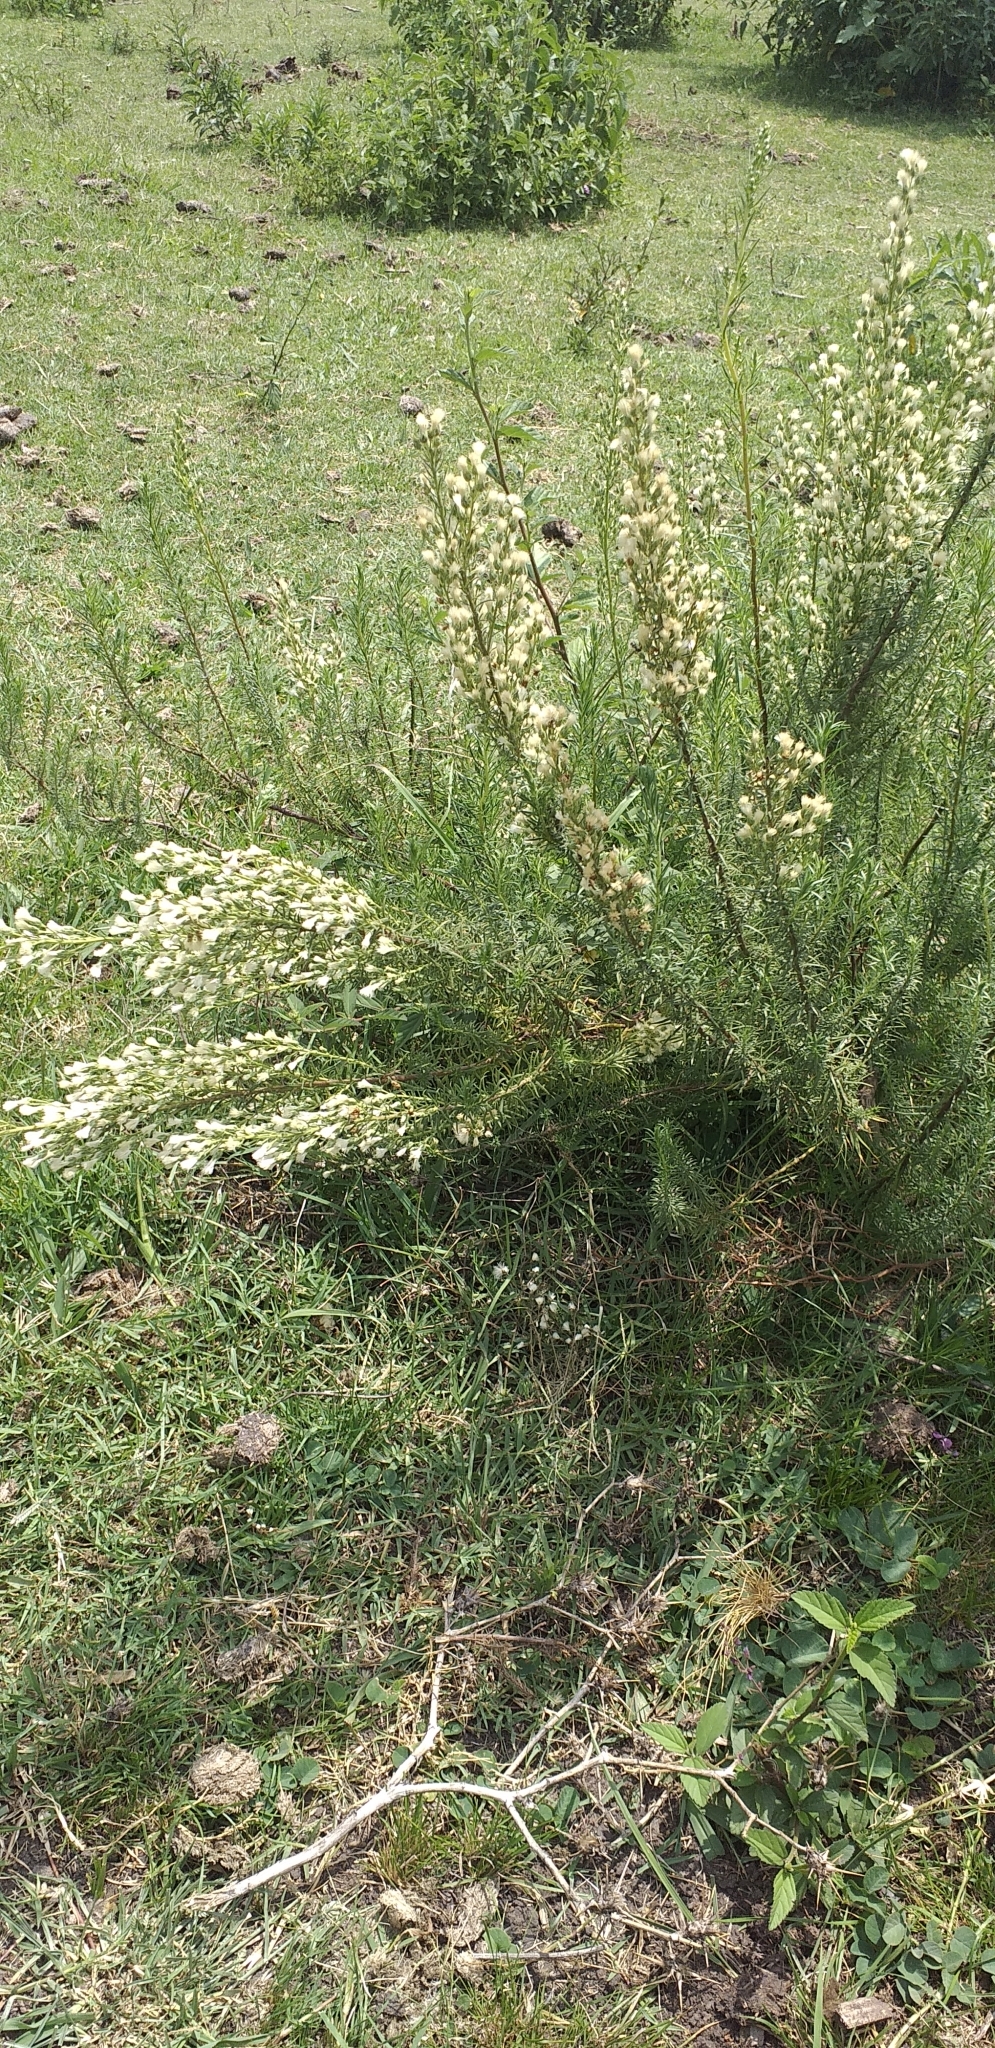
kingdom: Plantae
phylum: Tracheophyta
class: Magnoliopsida
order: Asterales
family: Asteraceae
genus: Baccharis
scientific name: Baccharis coridifolia
